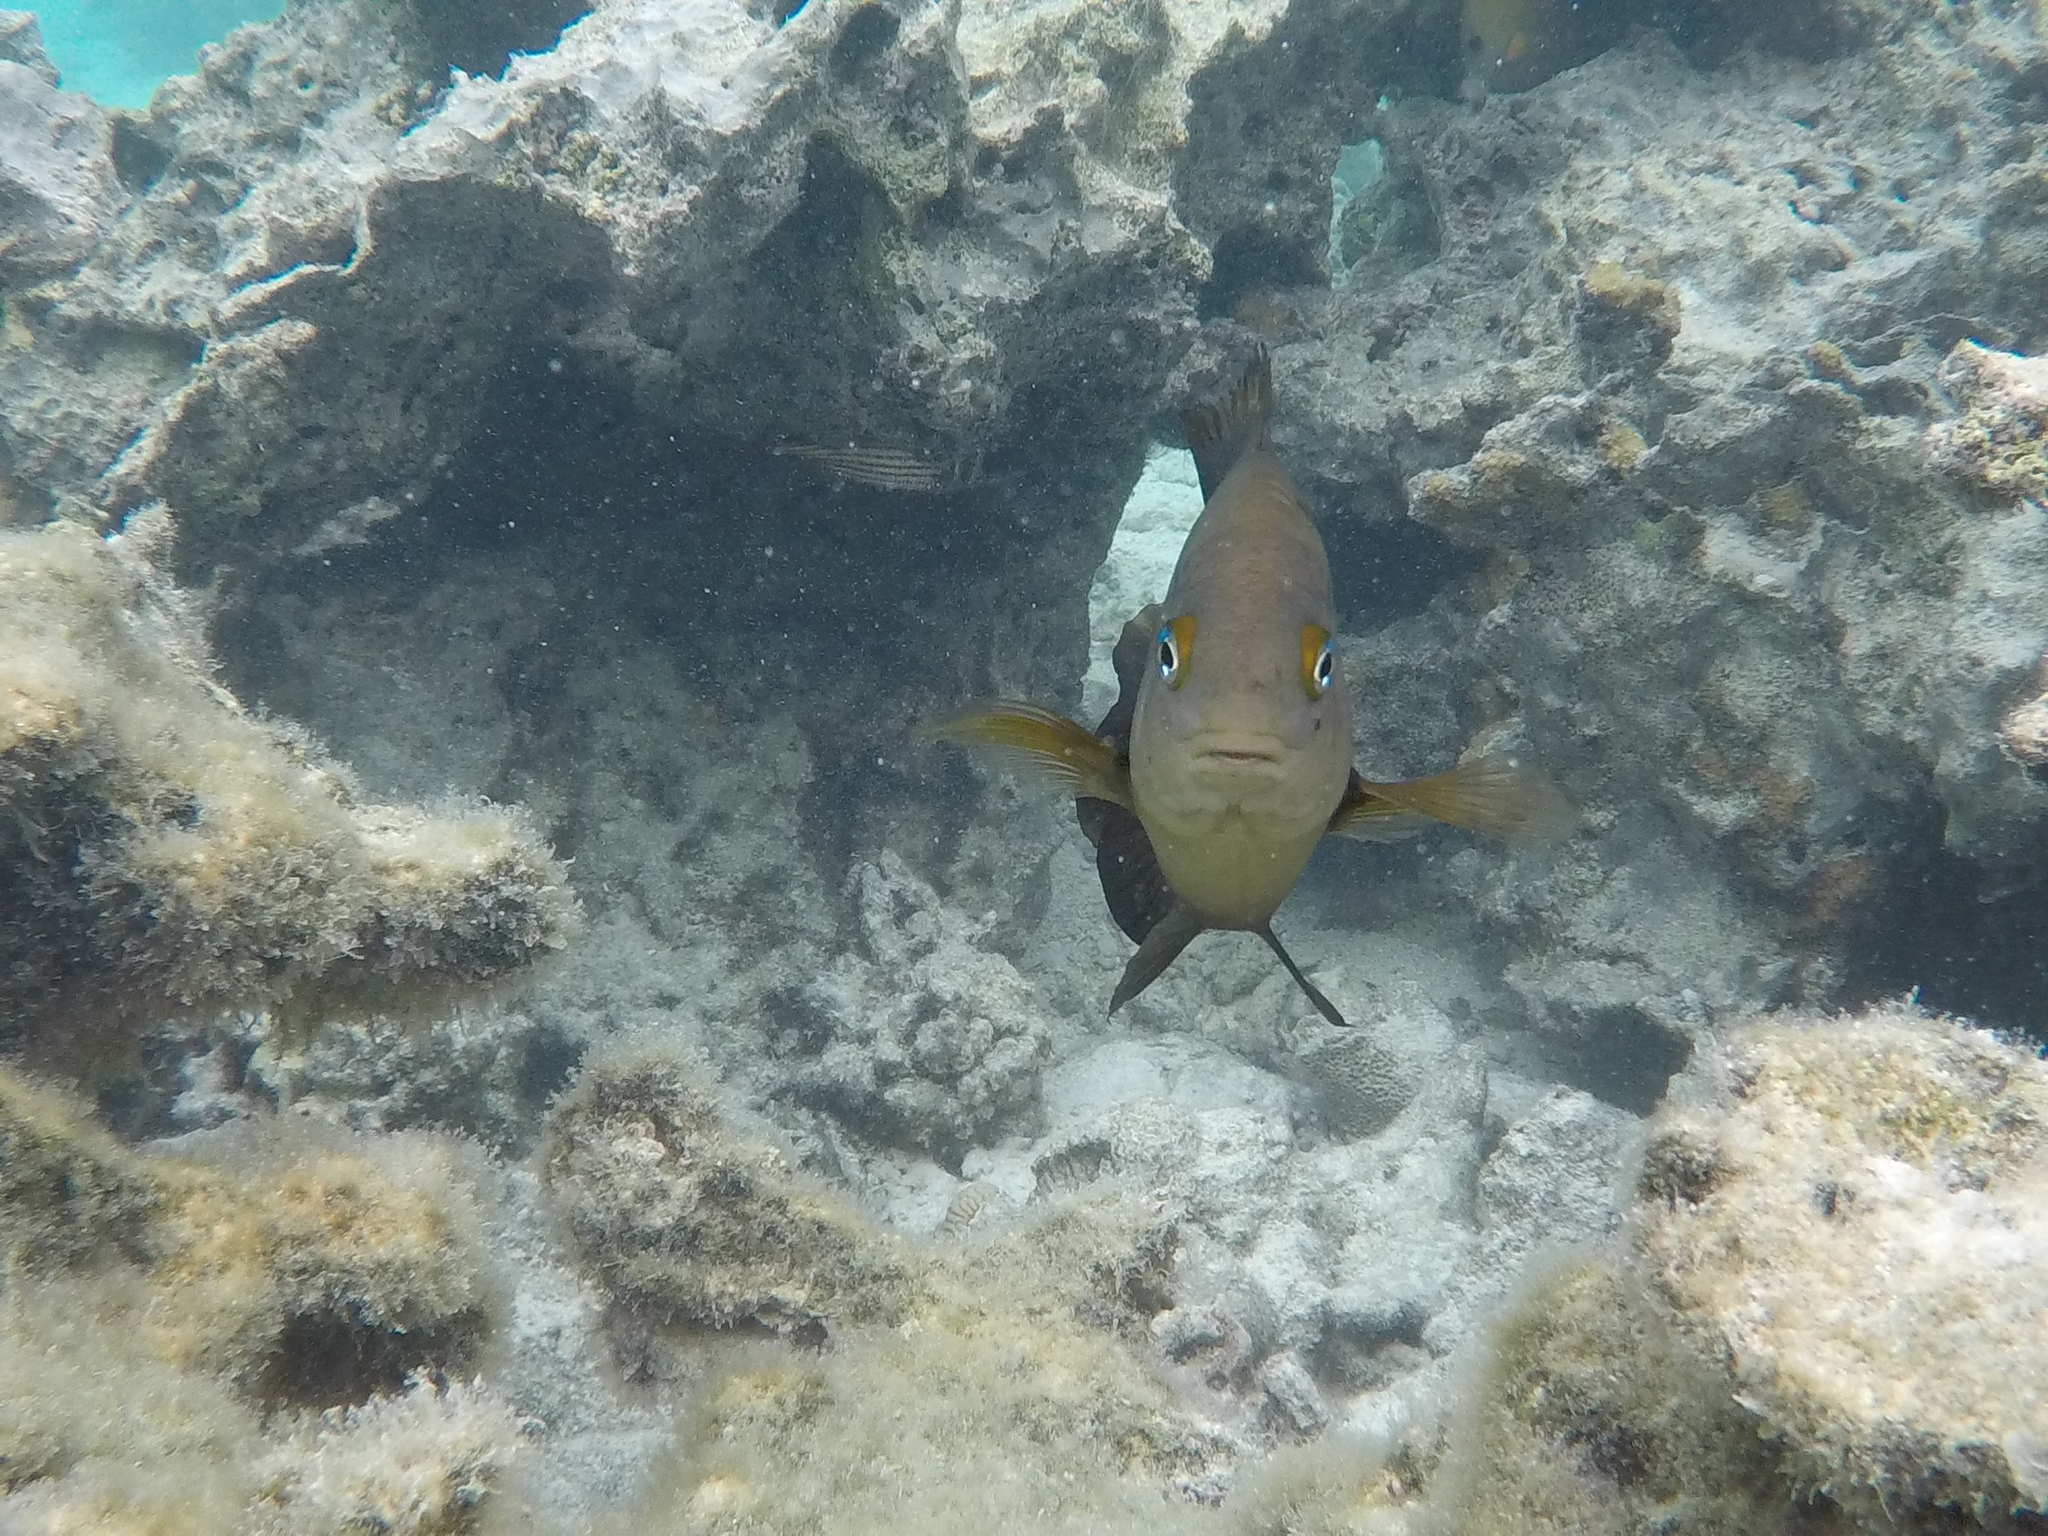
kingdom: Animalia
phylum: Chordata
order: Perciformes
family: Pomacentridae
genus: Stegastes
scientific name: Stegastes nigricans
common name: Dusky gregory
